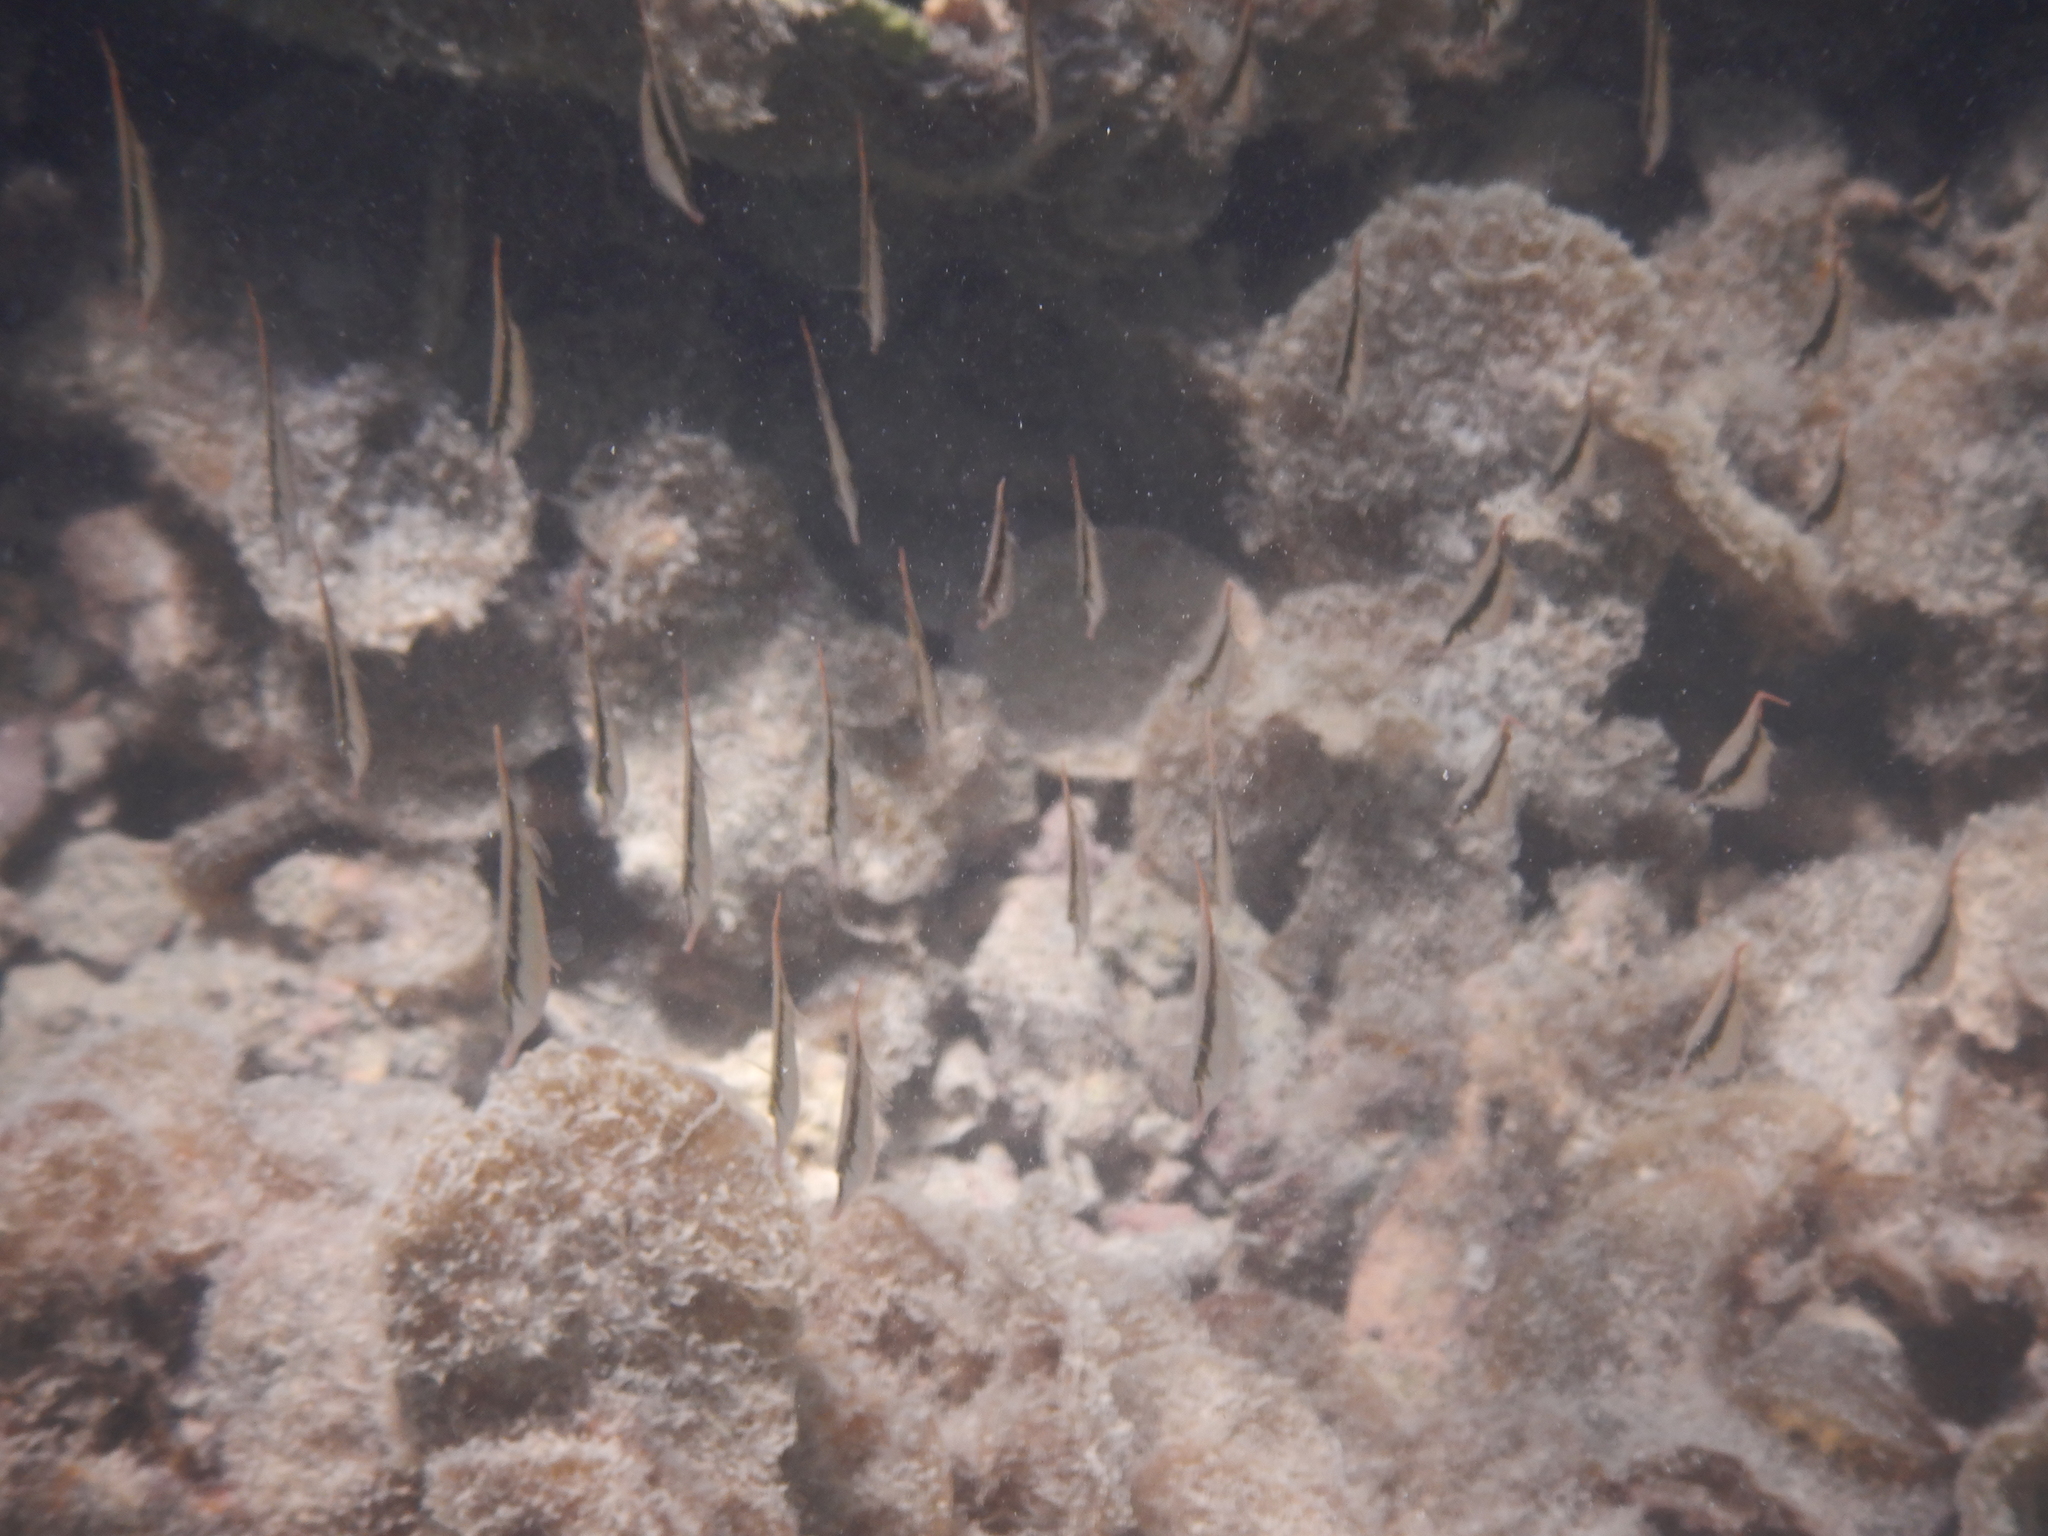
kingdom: Animalia
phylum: Chordata
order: Syngnathiformes
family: Centriscidae
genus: Aeoliscus
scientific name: Aeoliscus strigatus
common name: Canif
